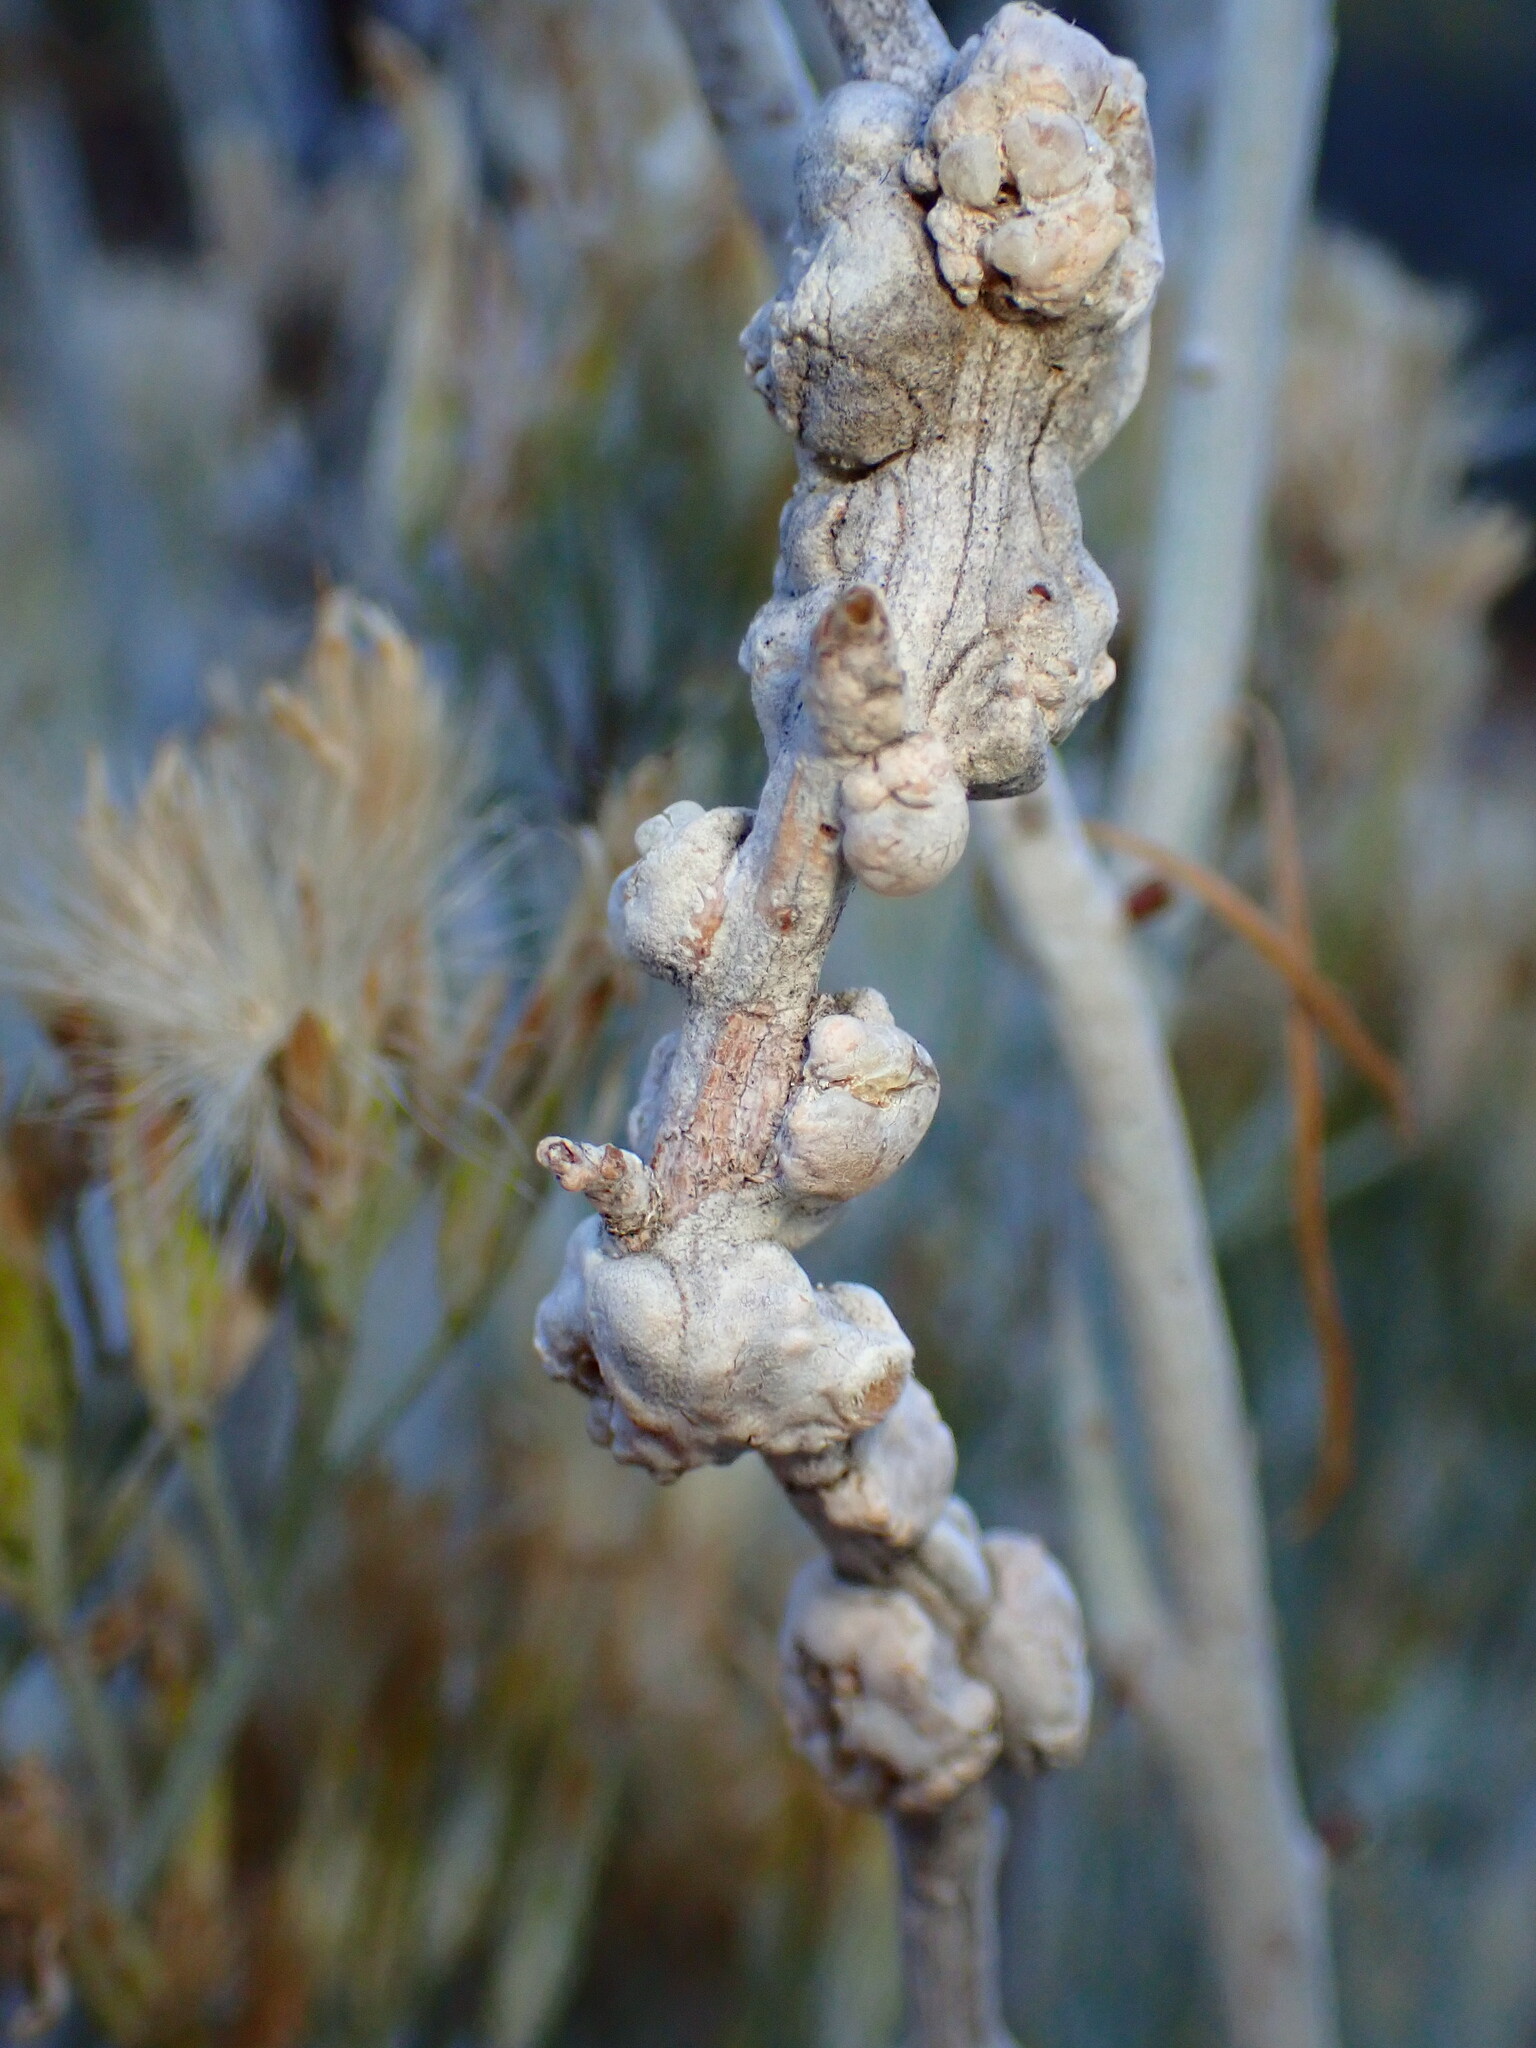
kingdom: Animalia
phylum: Arthropoda
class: Insecta
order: Diptera
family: Cecidomyiidae
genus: Rhopalomyia
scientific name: Rhopalomyia chrysothamni
